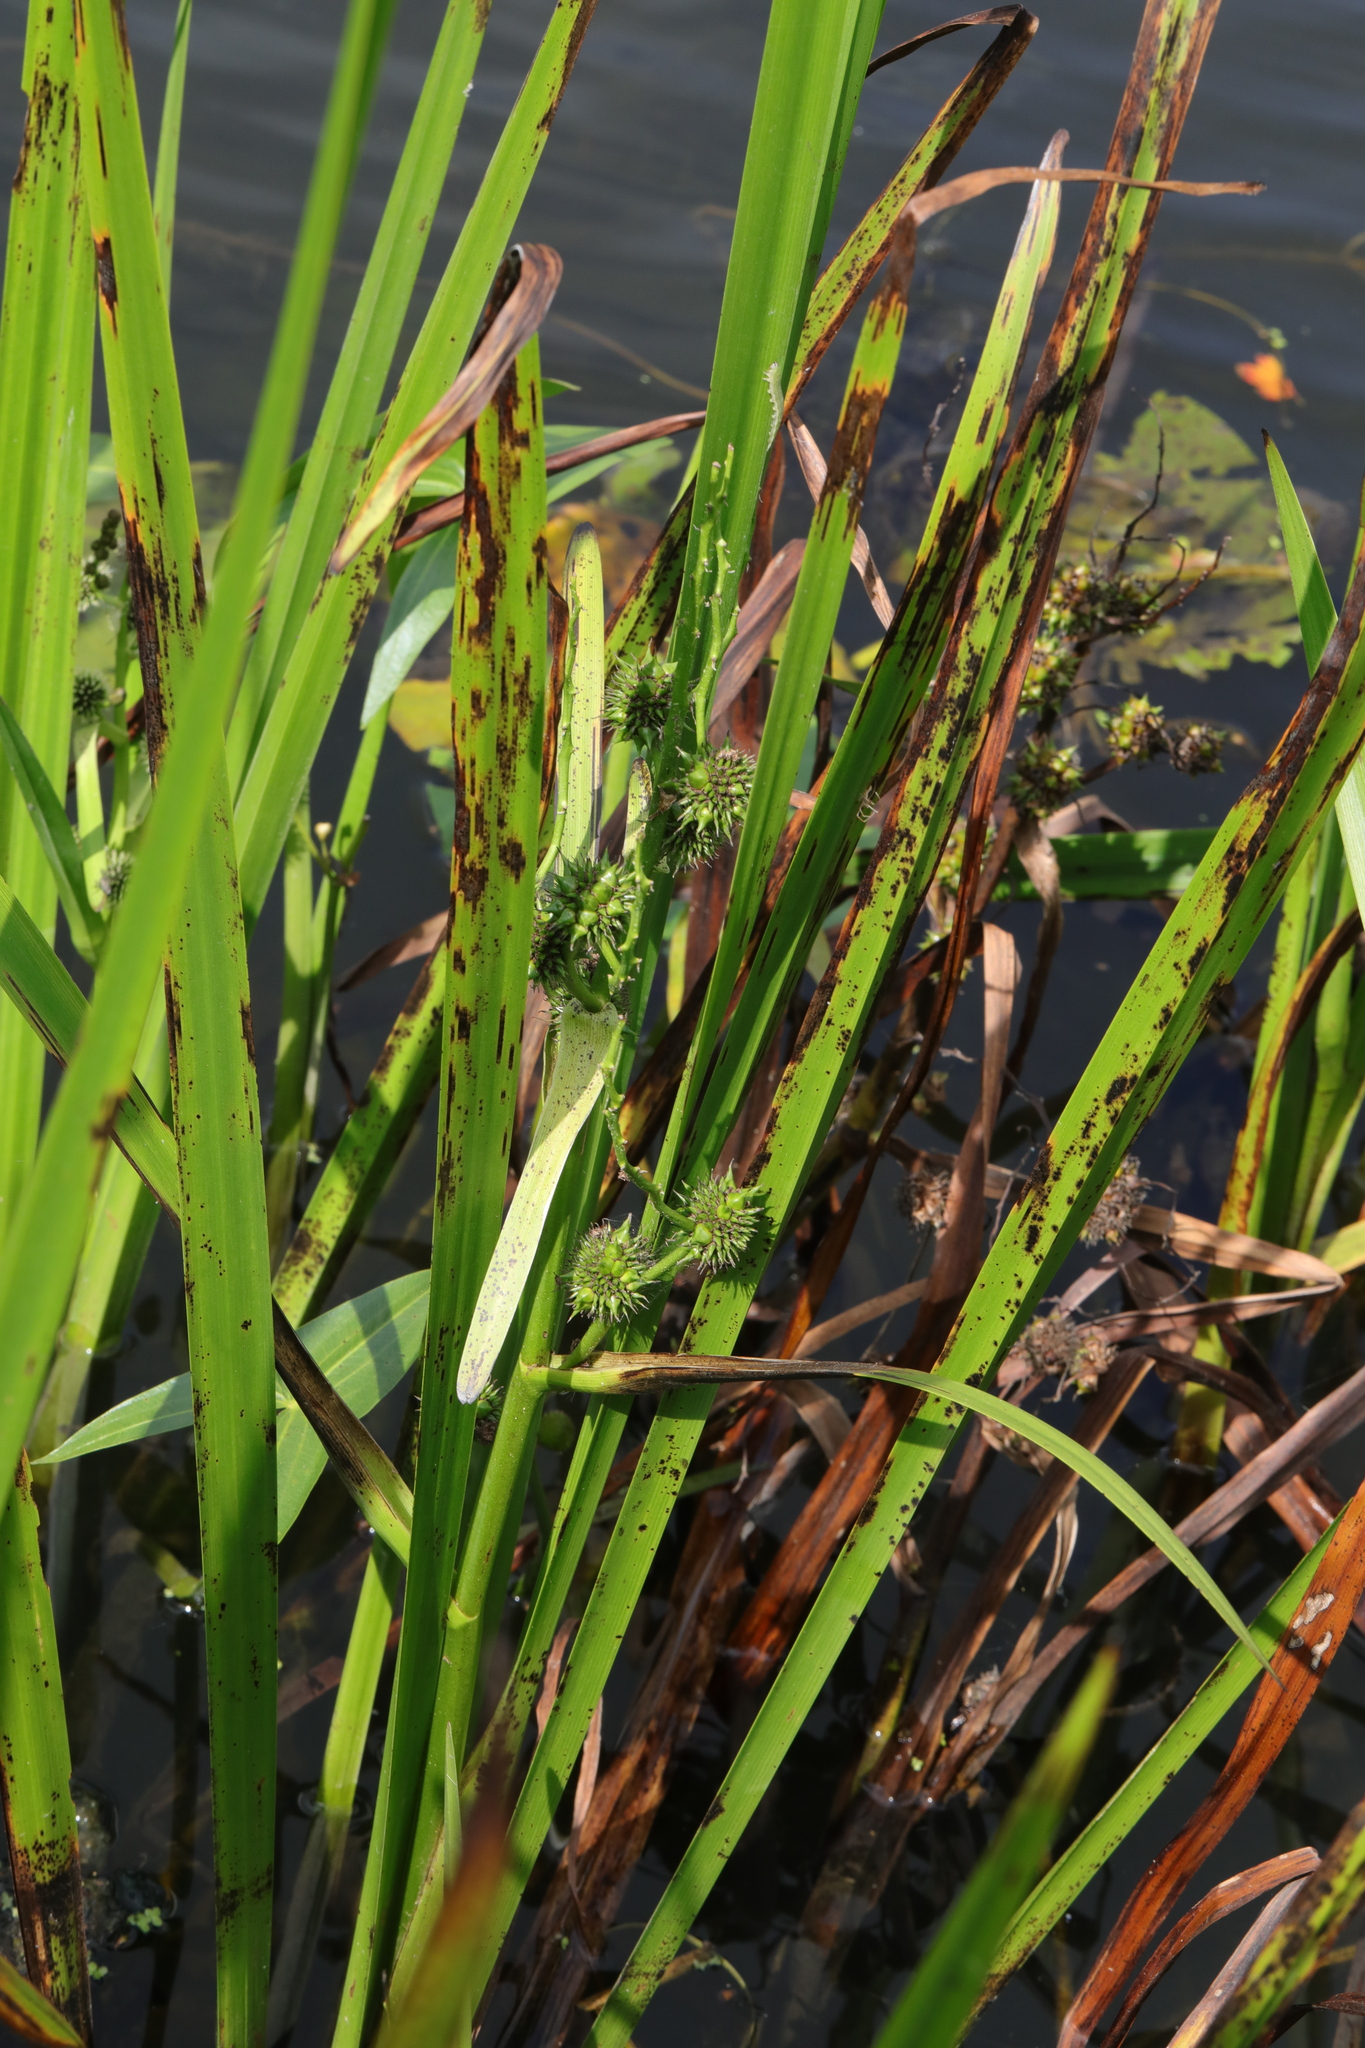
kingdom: Plantae
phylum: Tracheophyta
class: Liliopsida
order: Poales
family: Typhaceae
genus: Sparganium
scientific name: Sparganium erectum
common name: Branched bur-reed
